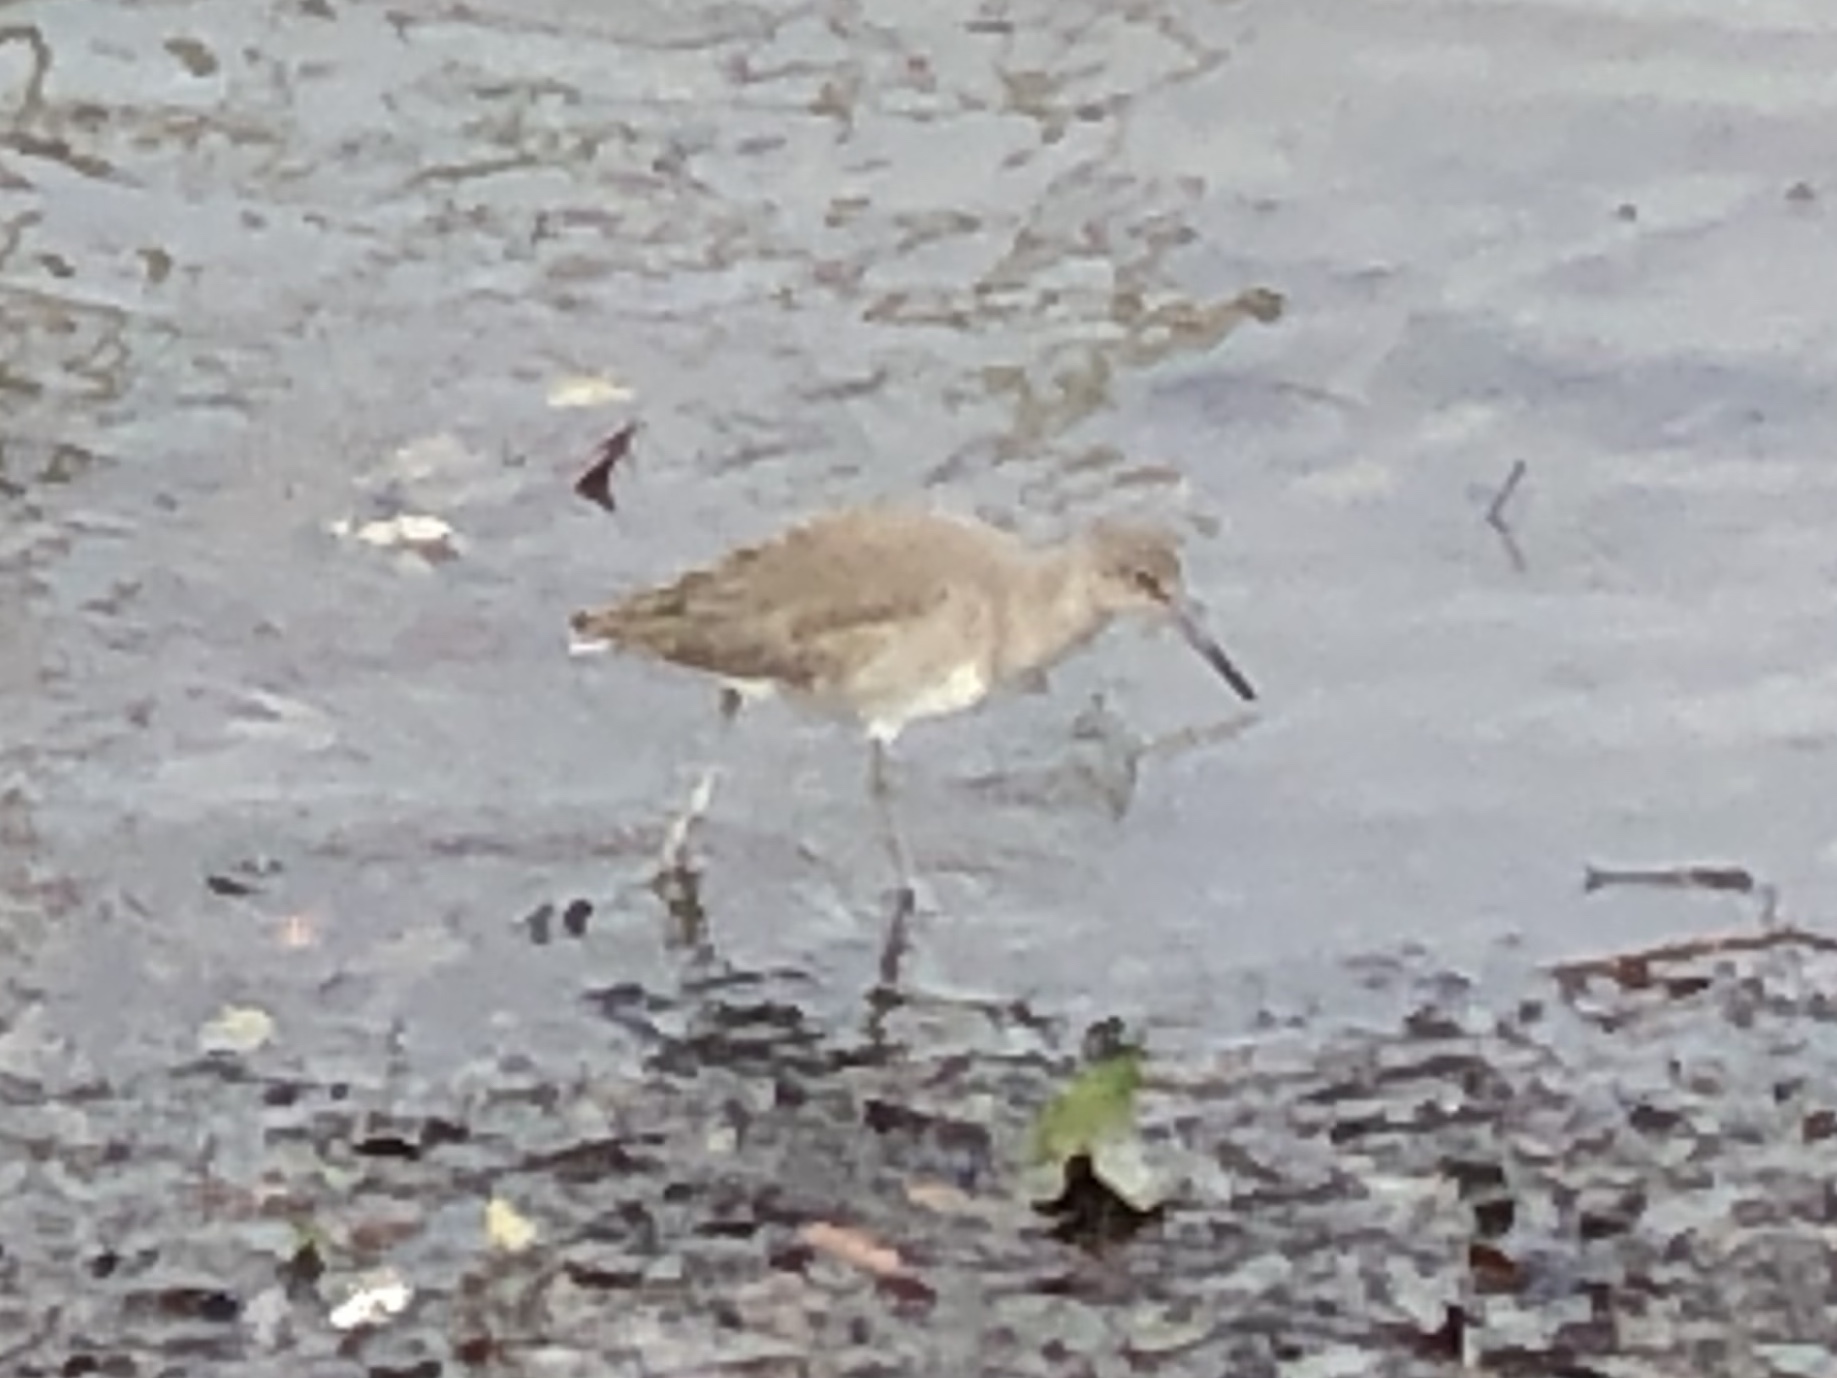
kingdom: Animalia
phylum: Chordata
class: Aves
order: Charadriiformes
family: Scolopacidae
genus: Tringa
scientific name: Tringa semipalmata
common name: Willet
